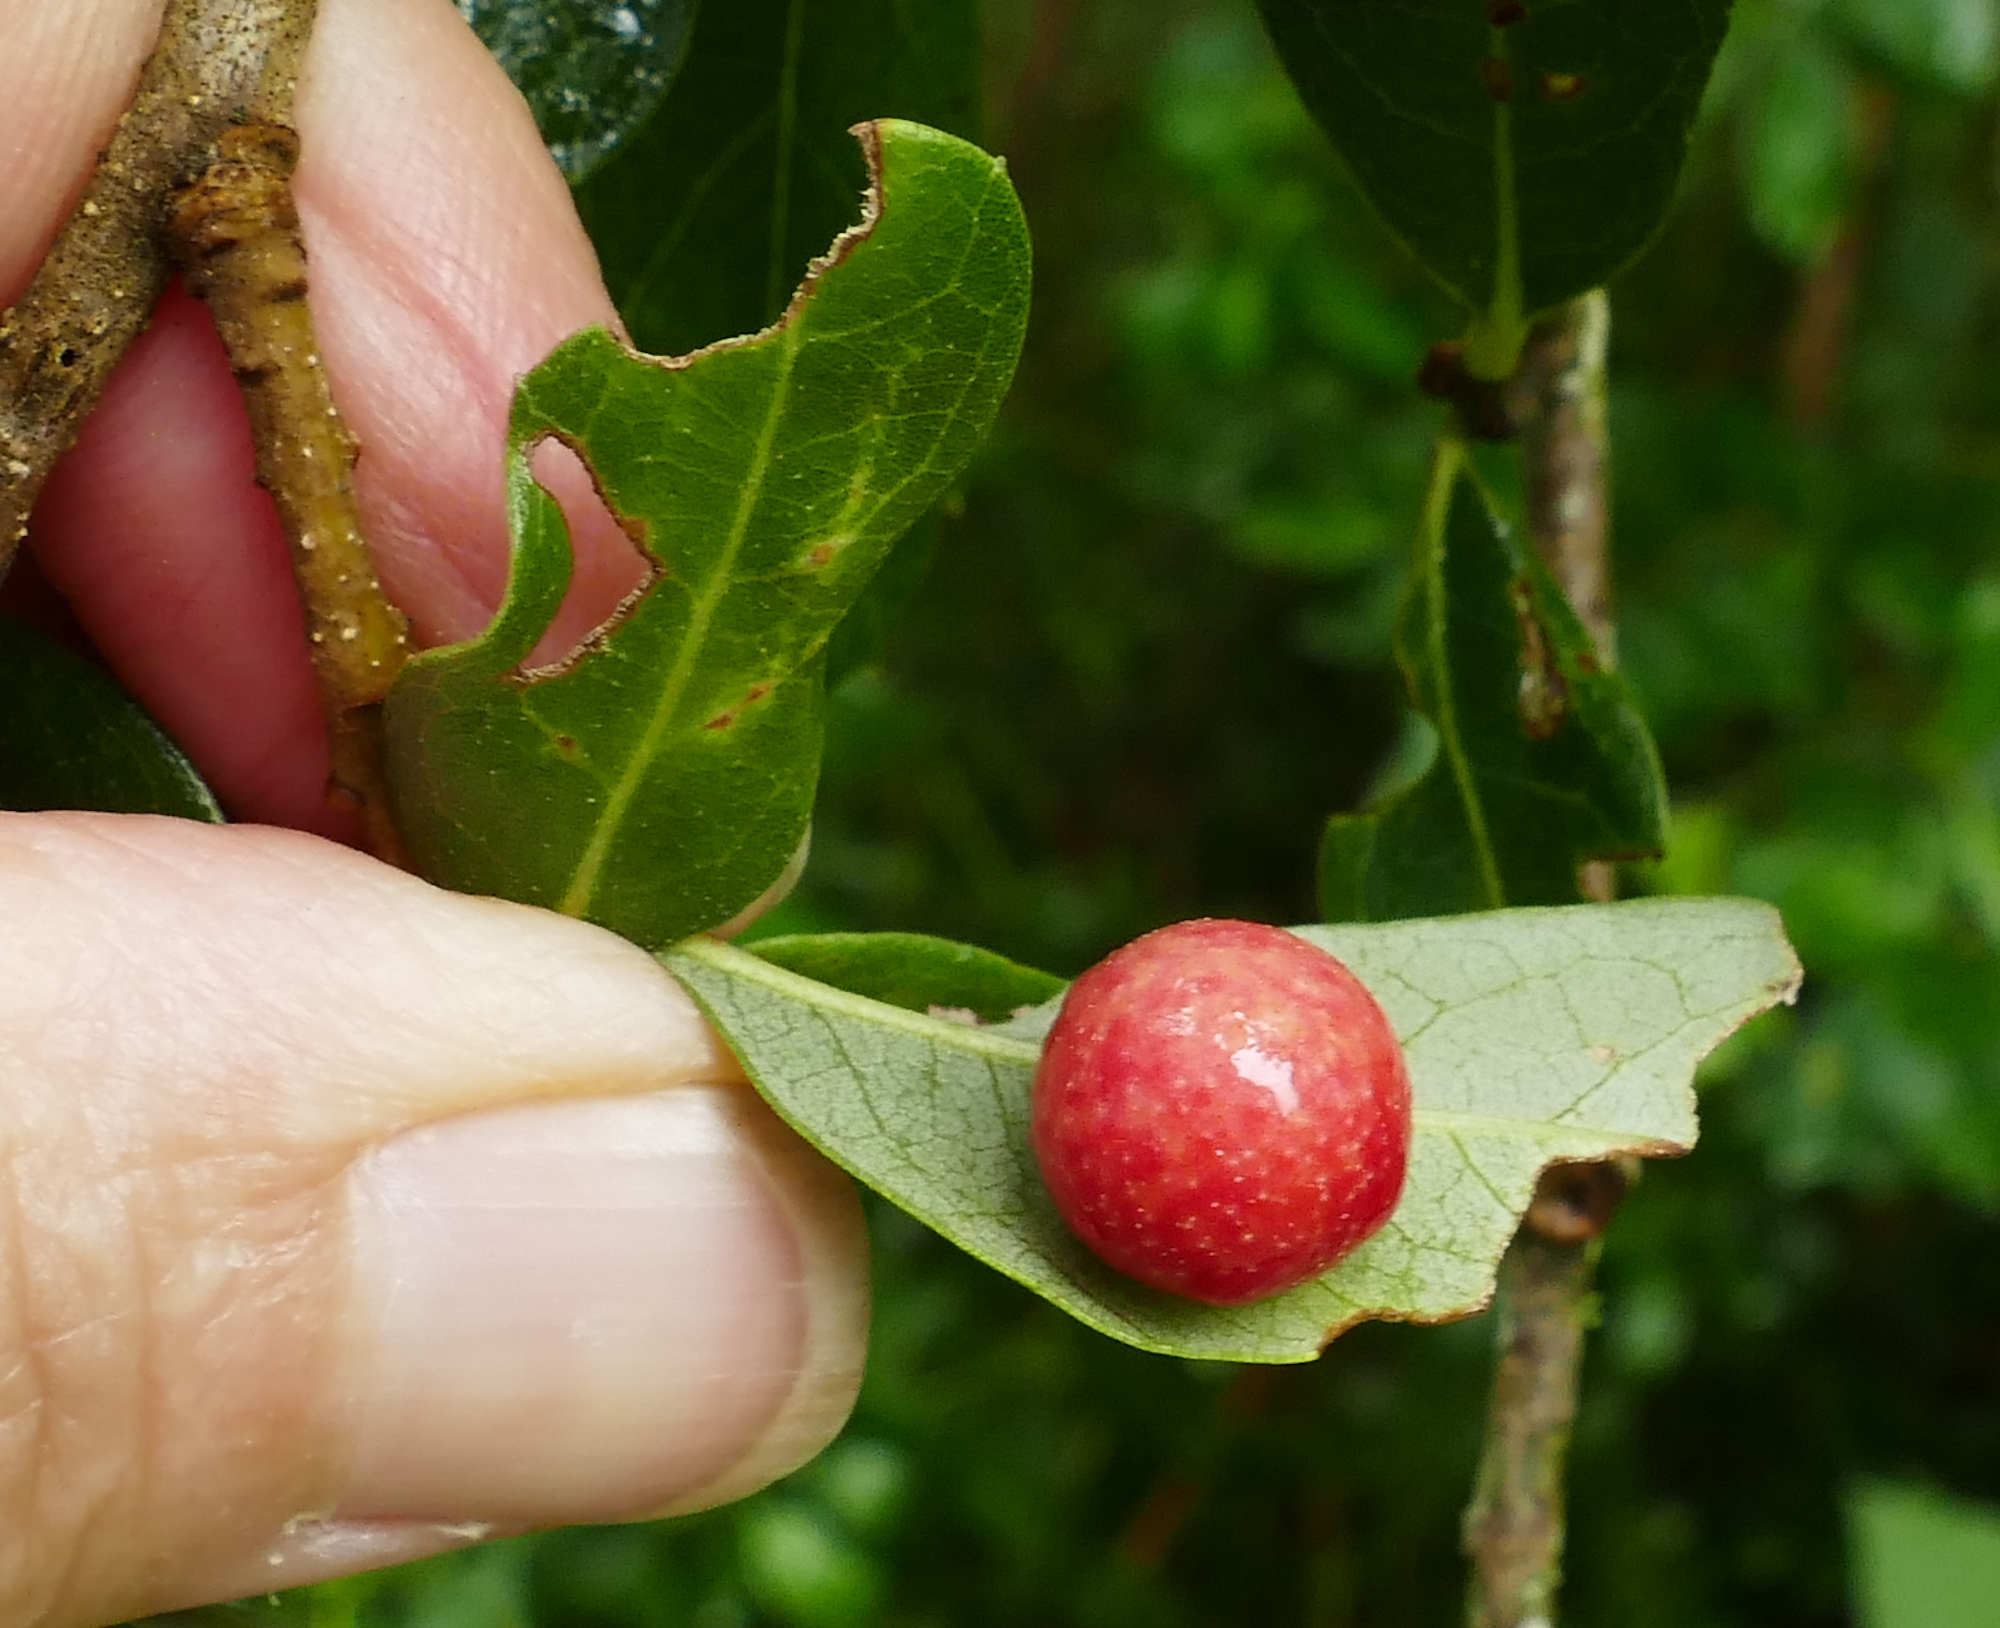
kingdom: Animalia
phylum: Arthropoda
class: Insecta
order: Hymenoptera
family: Cynipidae
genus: Belonocnema
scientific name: Belonocnema kinseyi
